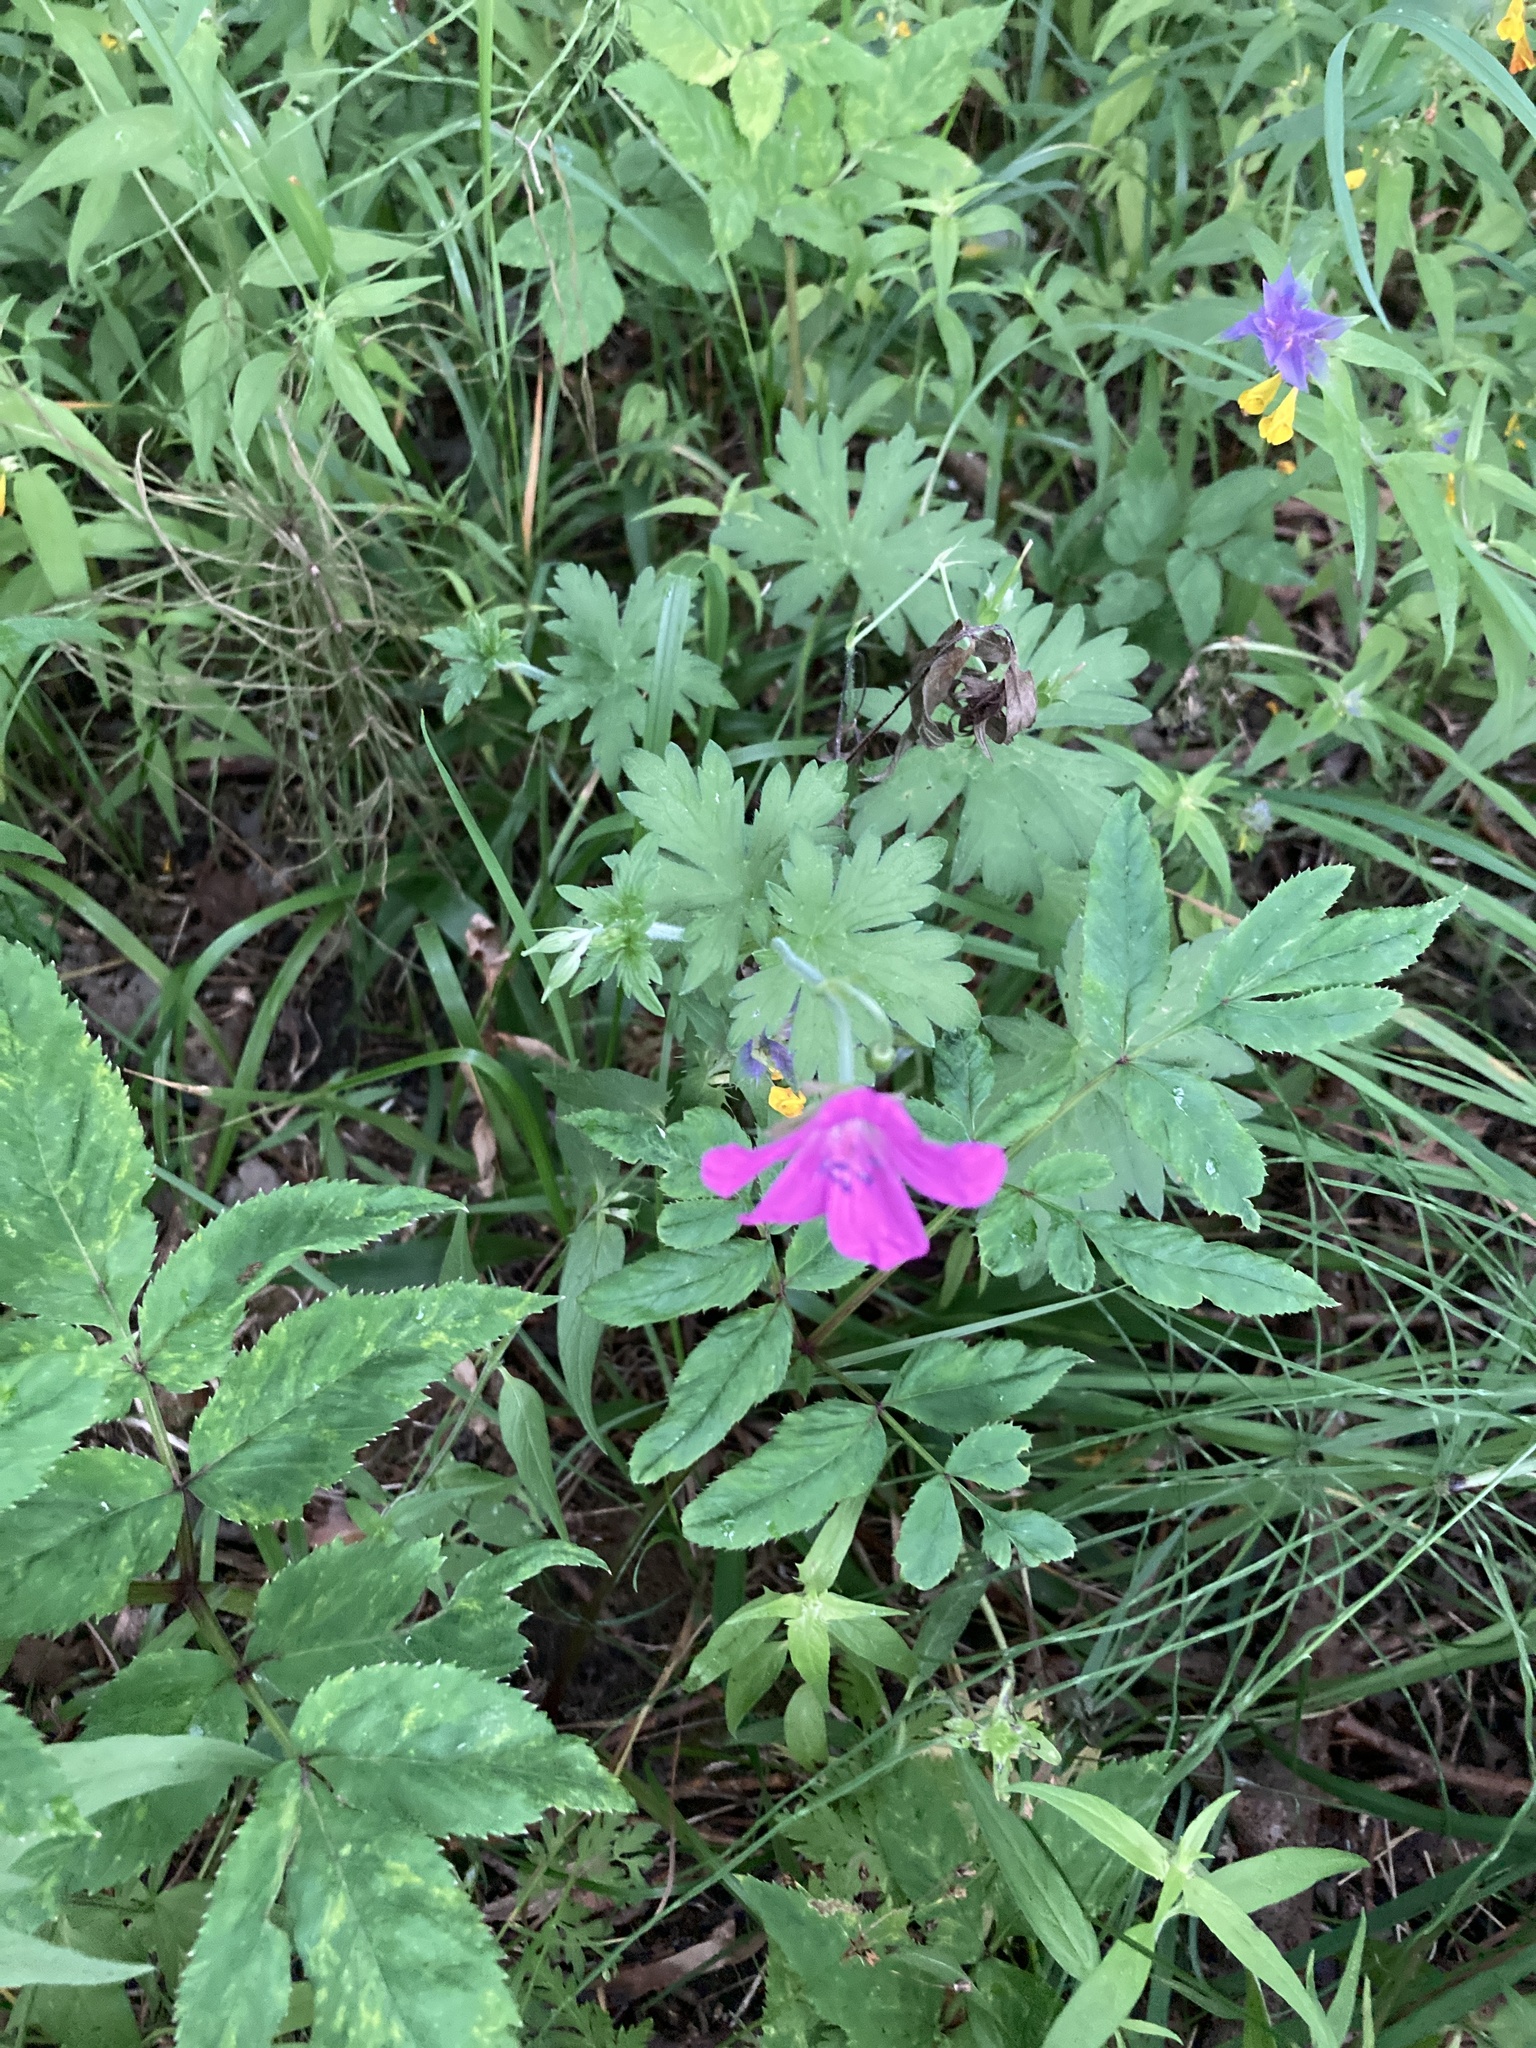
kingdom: Plantae
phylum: Tracheophyta
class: Magnoliopsida
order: Geraniales
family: Geraniaceae
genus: Geranium
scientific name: Geranium palustre
